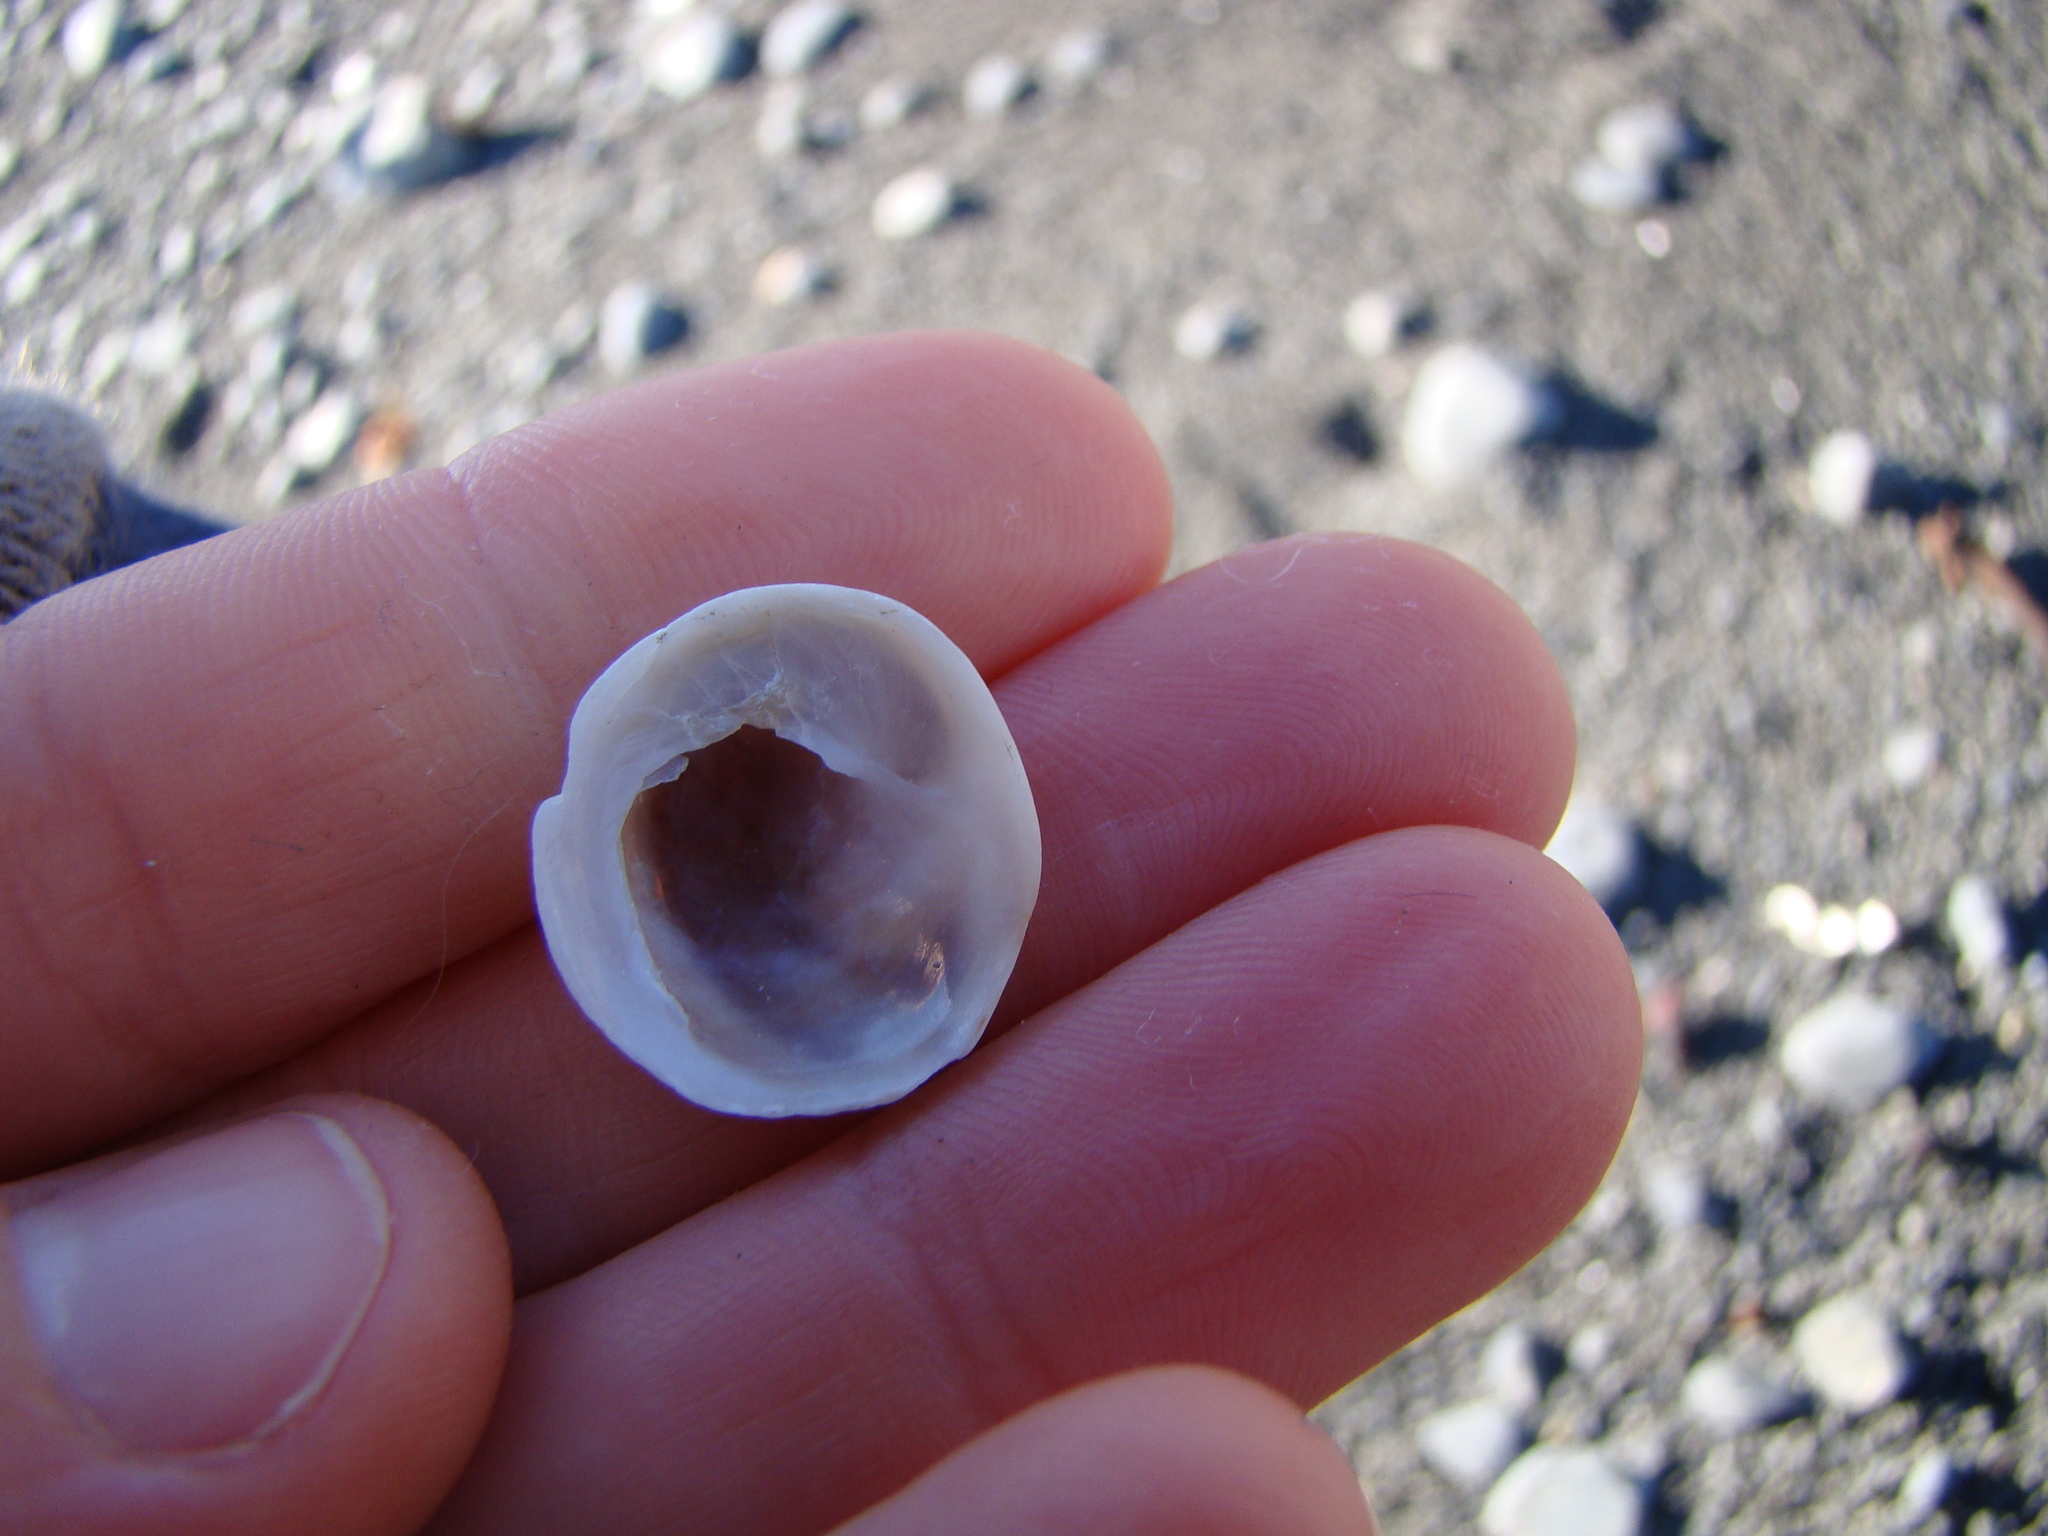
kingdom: Animalia
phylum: Mollusca
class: Gastropoda
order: Littorinimorpha
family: Calyptraeidae
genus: Sigapatella
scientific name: Sigapatella novaezelandiae
